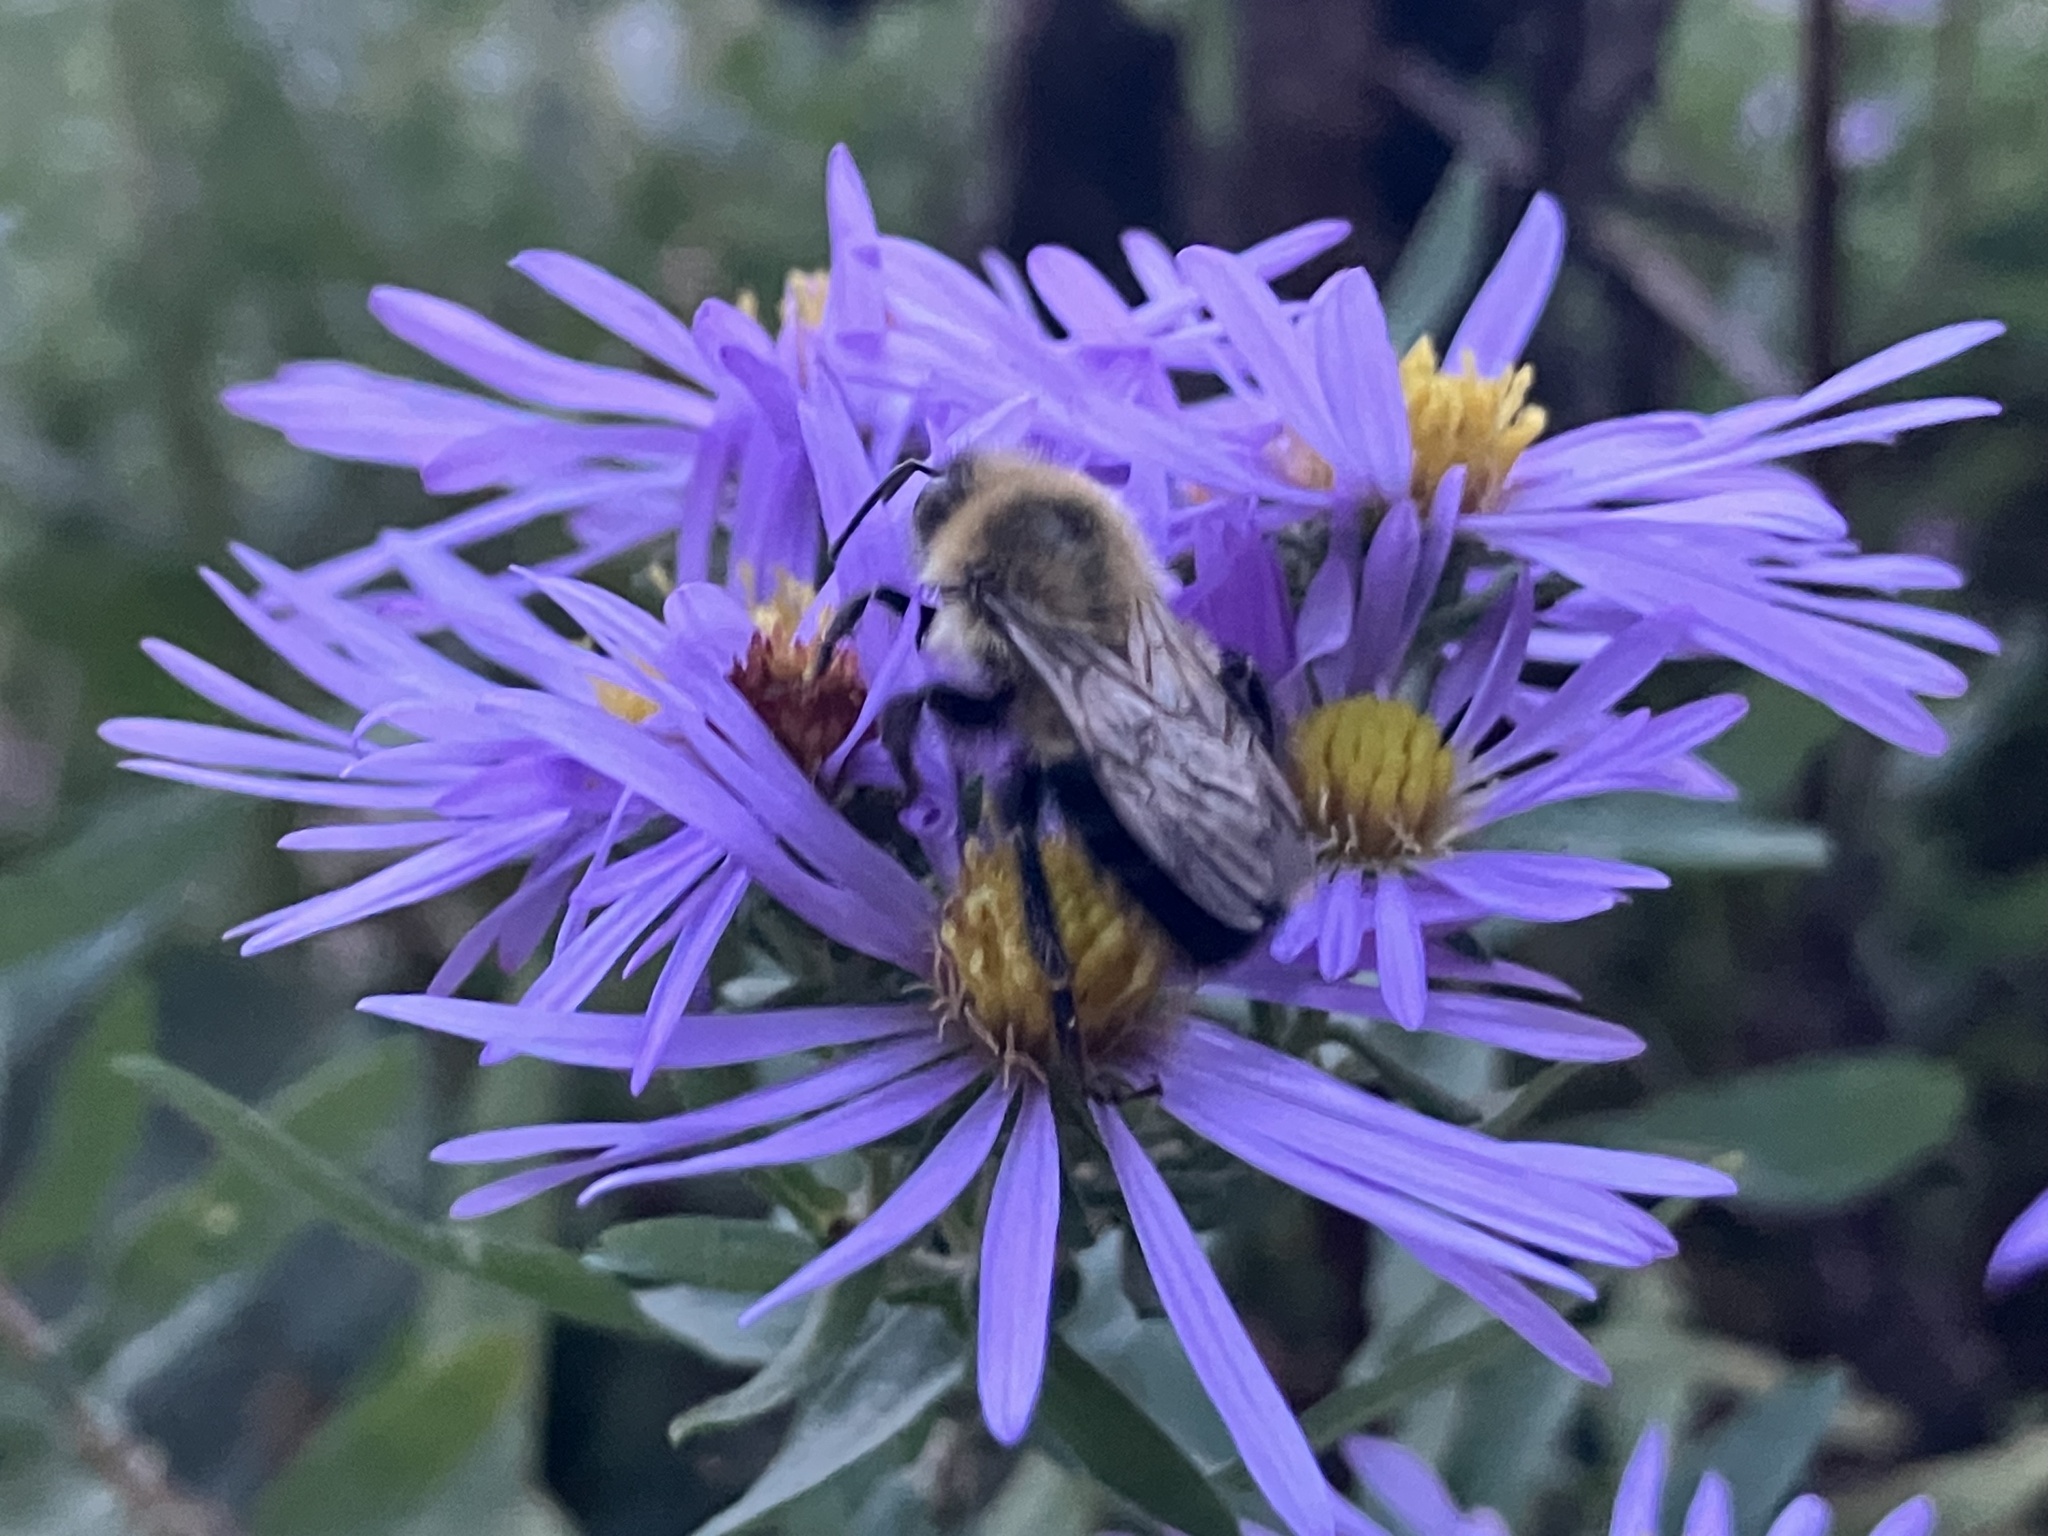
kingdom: Animalia
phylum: Arthropoda
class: Insecta
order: Hymenoptera
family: Apidae
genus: Bombus
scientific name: Bombus impatiens
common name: Common eastern bumble bee
